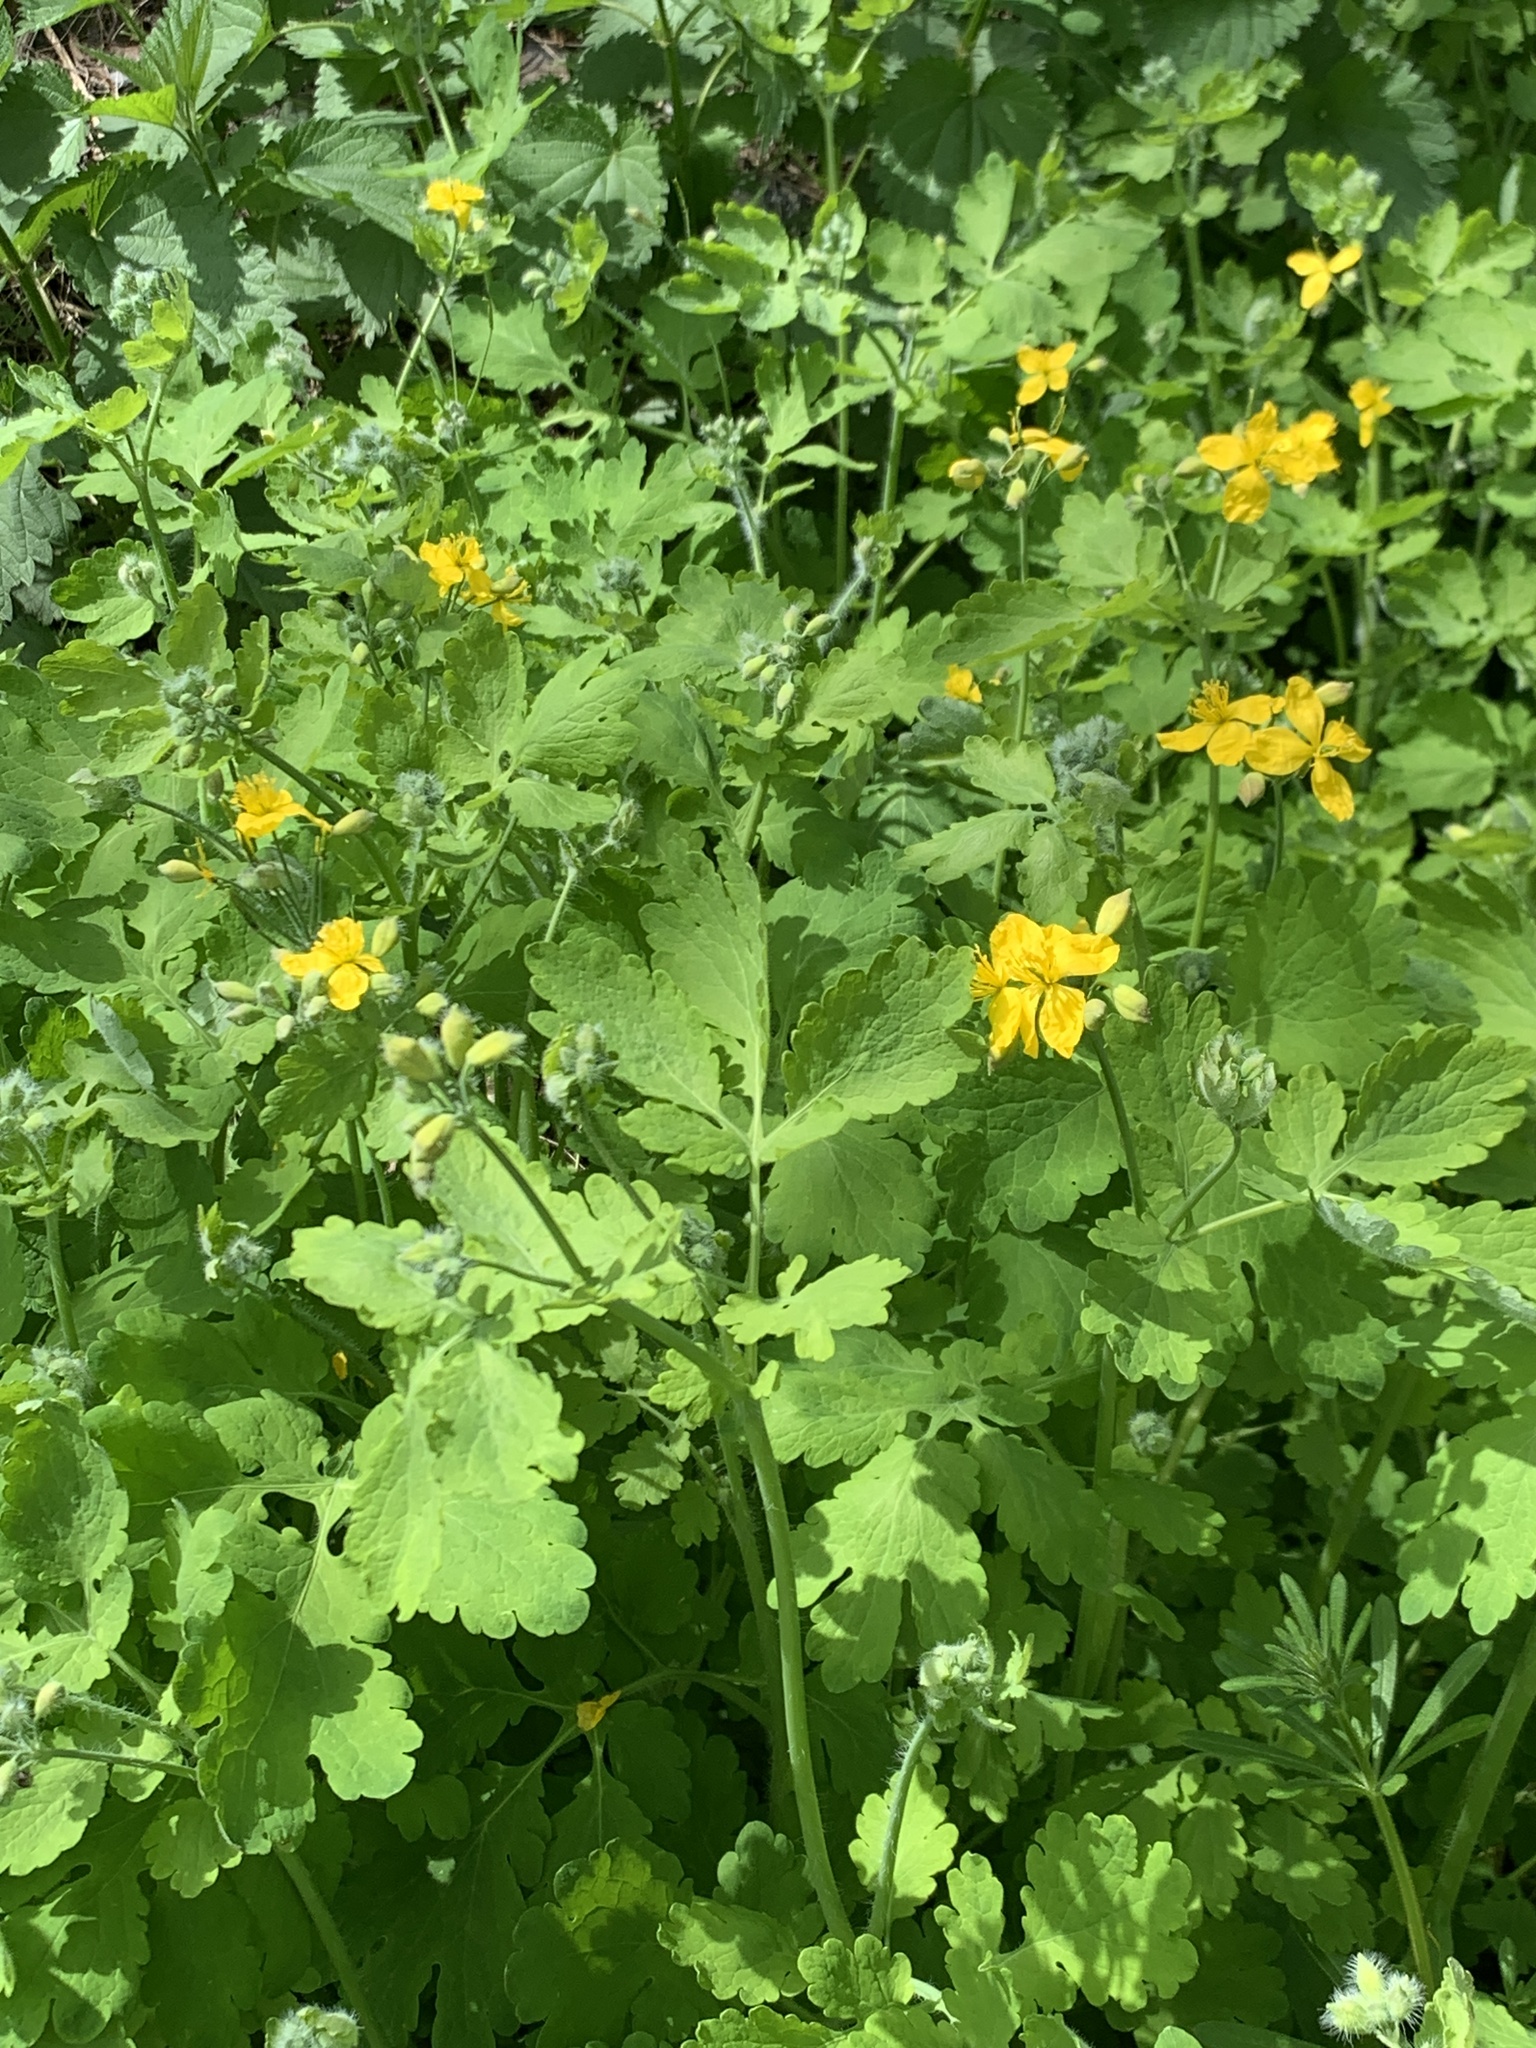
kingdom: Plantae
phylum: Tracheophyta
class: Magnoliopsida
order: Ranunculales
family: Papaveraceae
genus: Chelidonium
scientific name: Chelidonium majus
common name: Greater celandine
